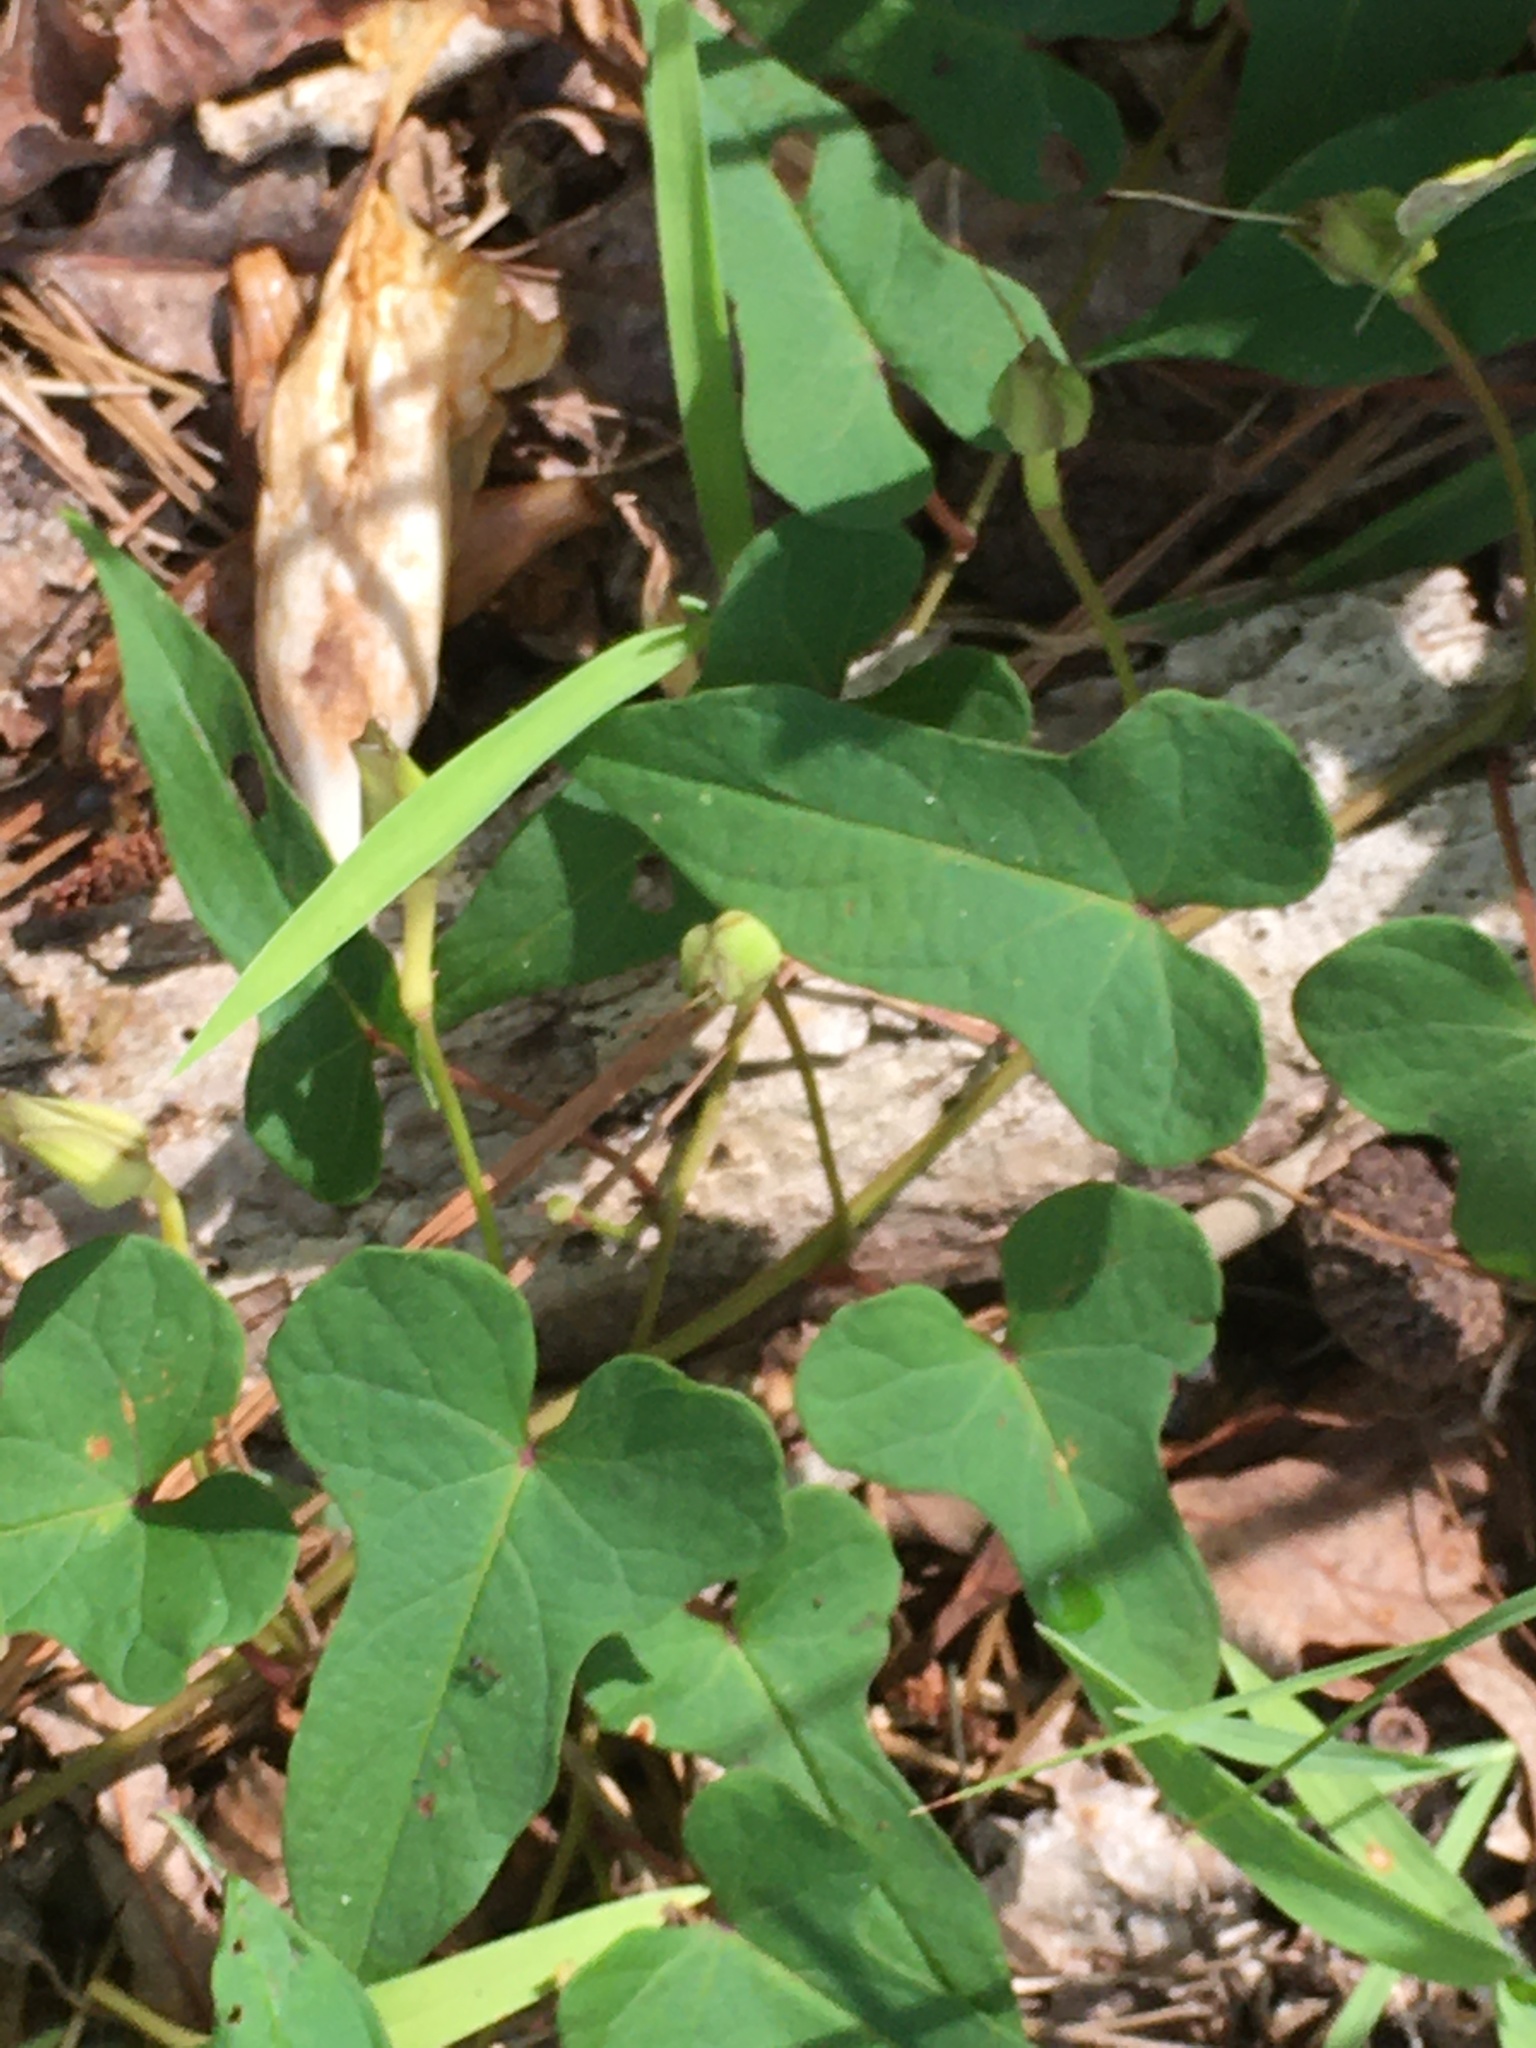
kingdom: Plantae
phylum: Tracheophyta
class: Magnoliopsida
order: Solanales
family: Convolvulaceae
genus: Ipomoea
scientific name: Ipomoea pandurata
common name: Man-of-the-earth
